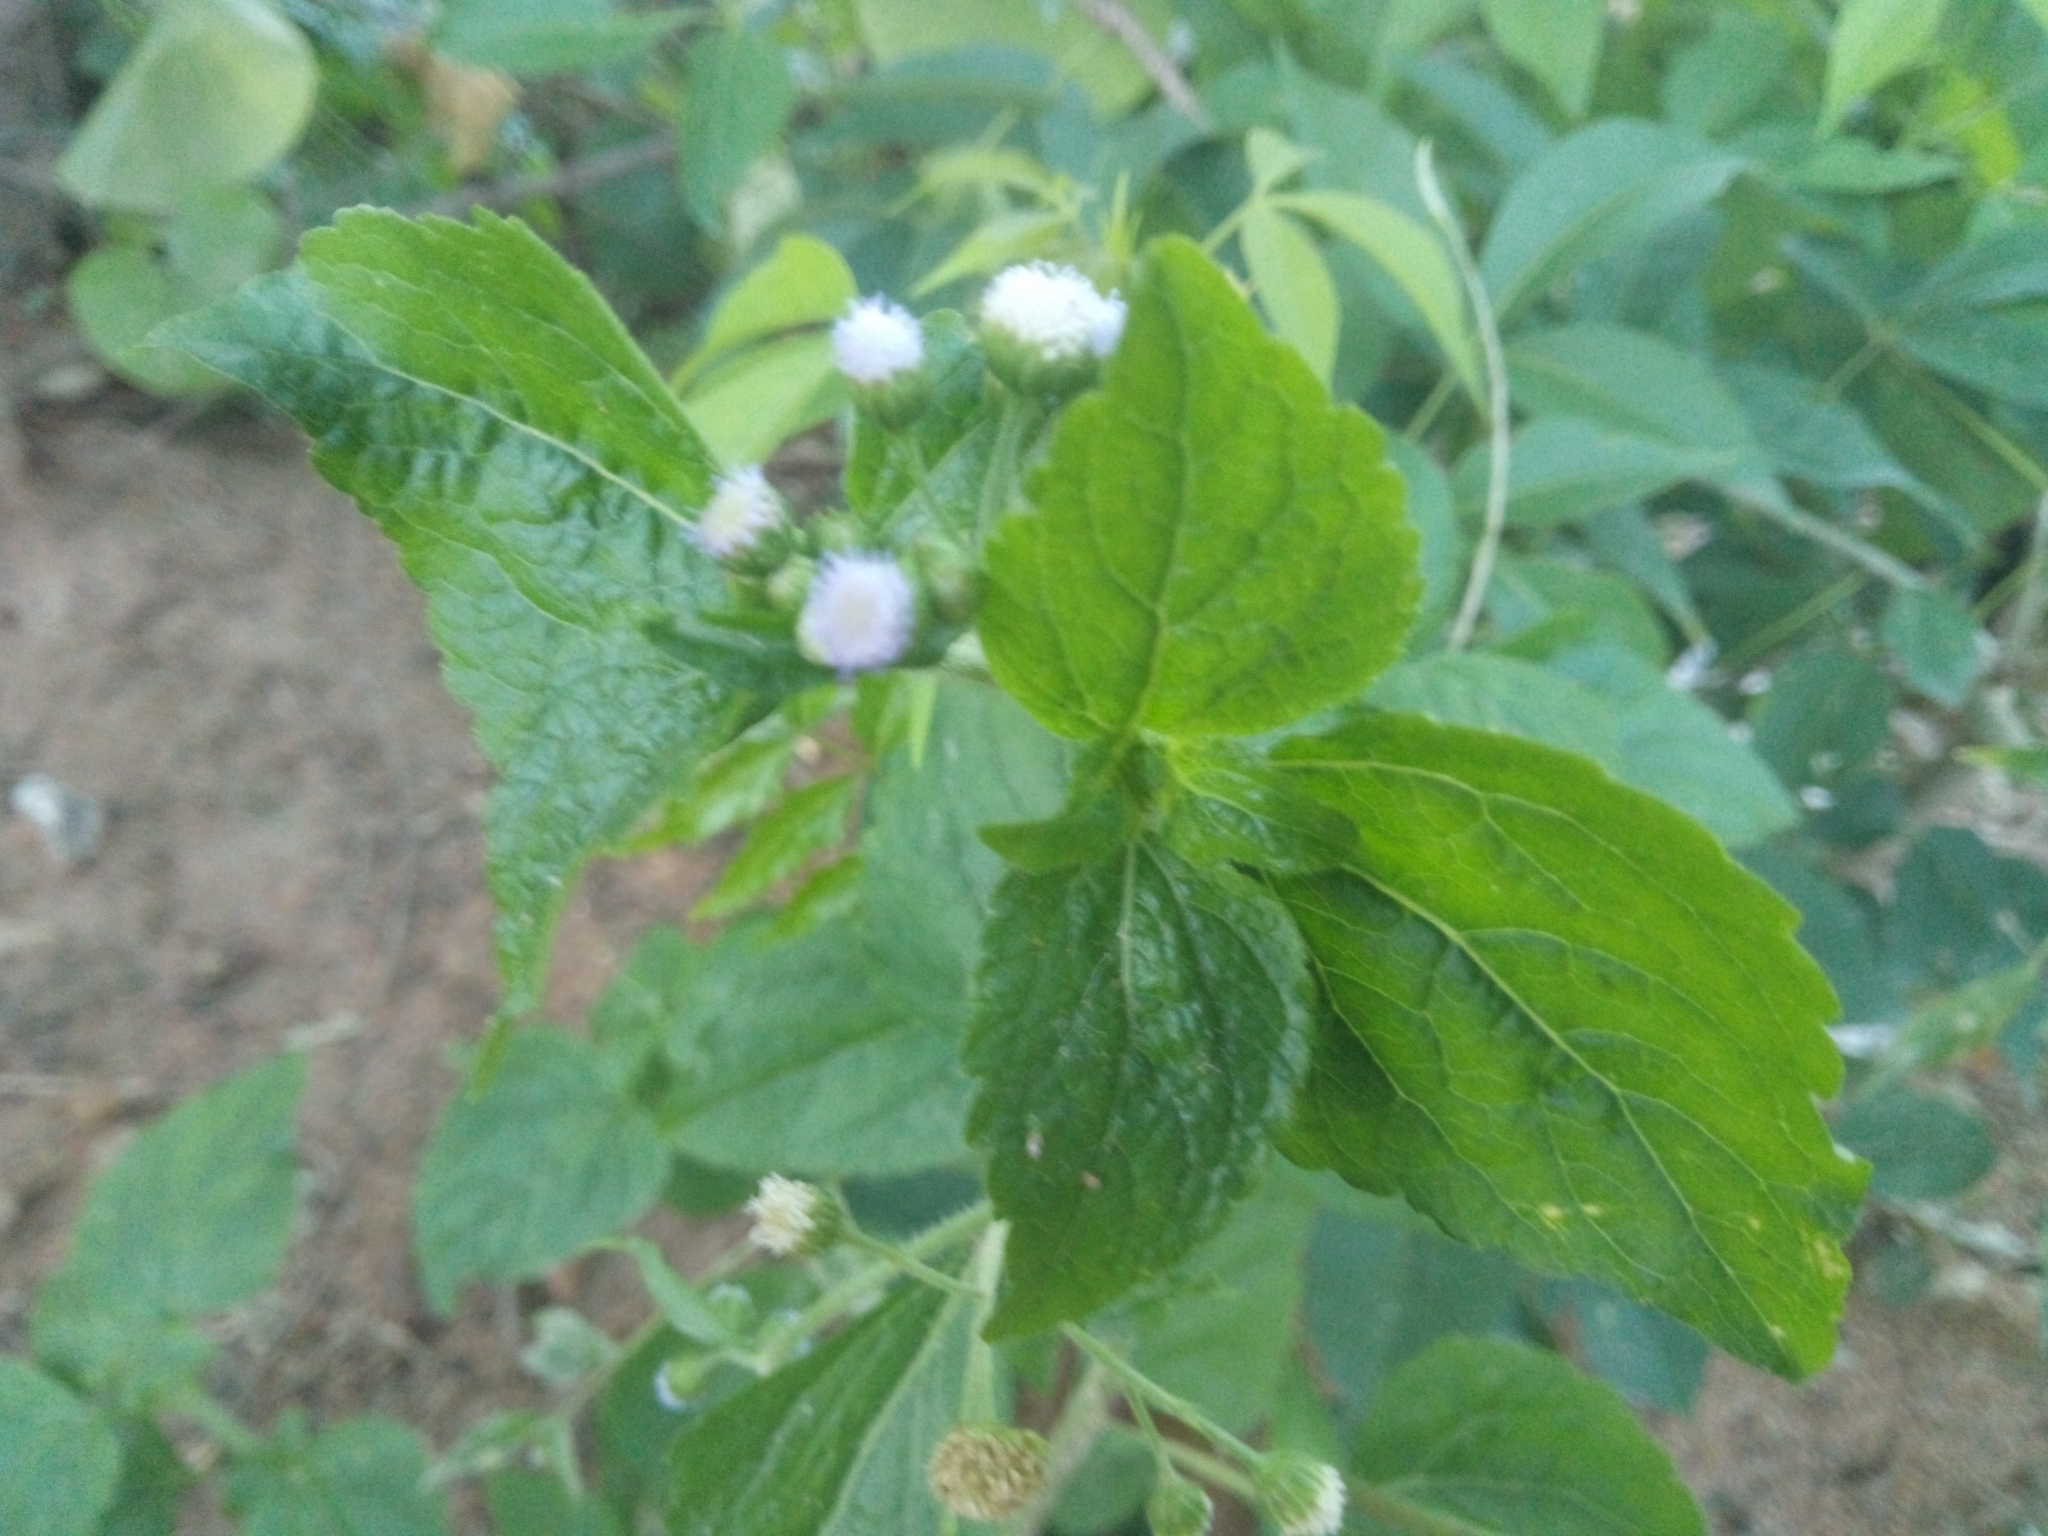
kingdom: Plantae
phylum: Tracheophyta
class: Magnoliopsida
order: Asterales
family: Asteraceae
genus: Ageratum
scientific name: Ageratum conyzoides
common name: Tropical whiteweed
